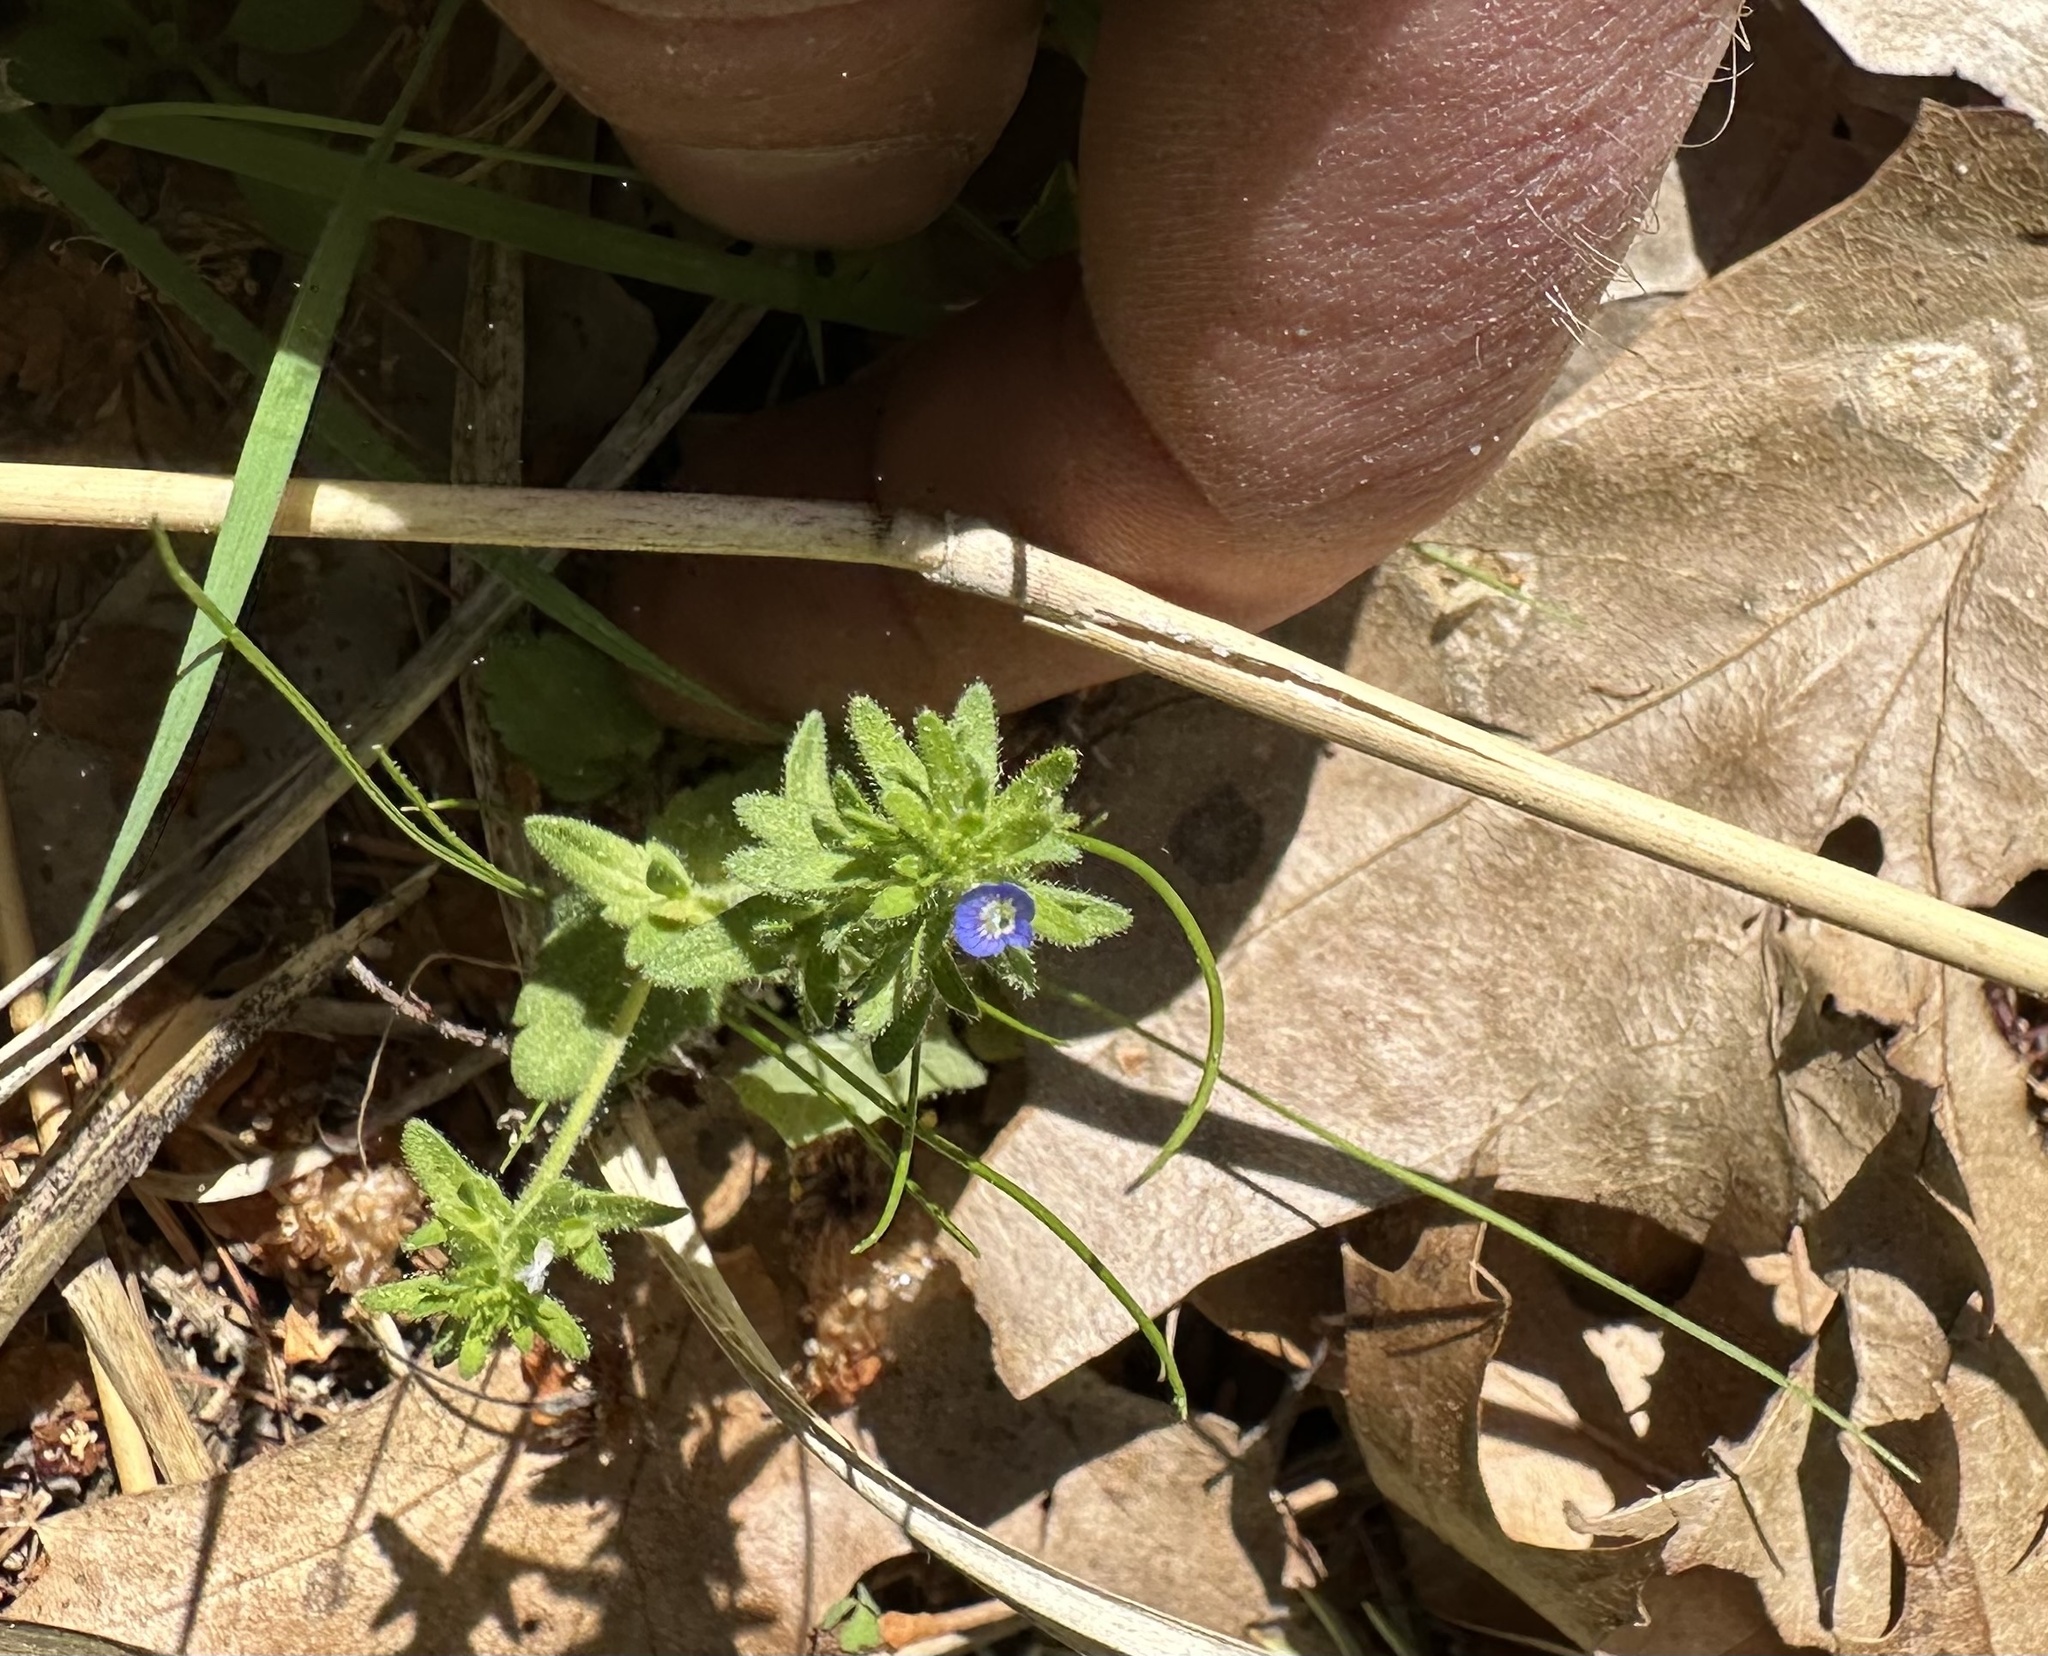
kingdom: Plantae
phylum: Tracheophyta
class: Magnoliopsida
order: Lamiales
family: Plantaginaceae
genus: Veronica
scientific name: Veronica arvensis
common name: Corn speedwell
